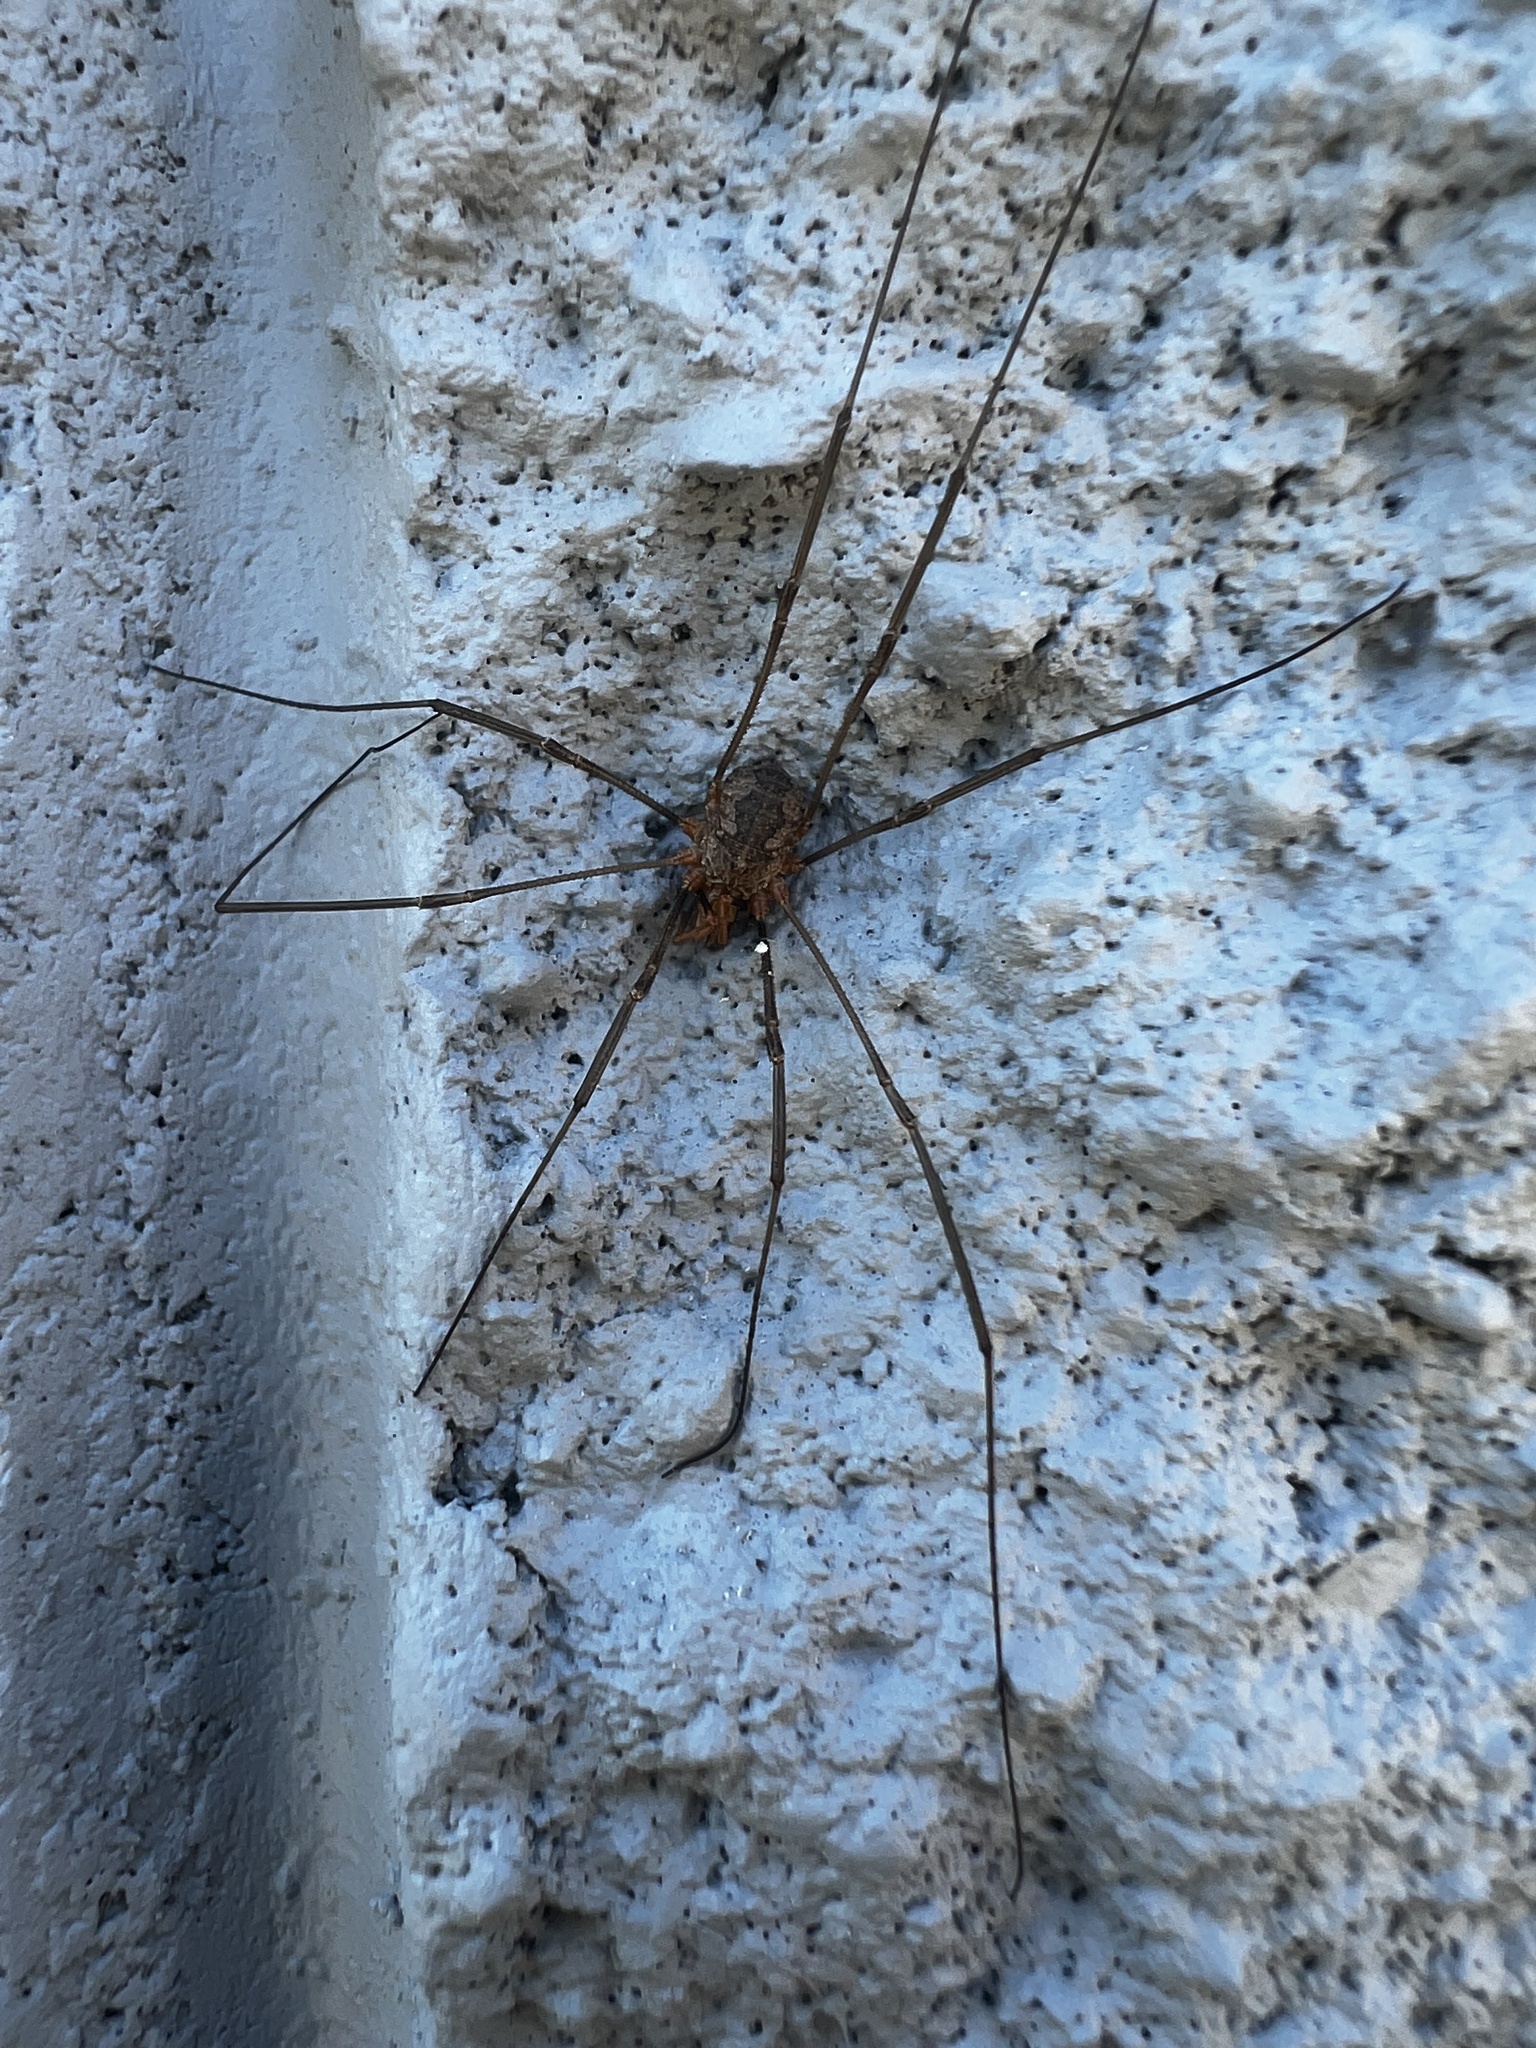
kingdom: Animalia
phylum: Arthropoda
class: Arachnida
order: Opiliones
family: Phalangiidae
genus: Phalangium
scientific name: Phalangium opilio
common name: Daddy longleg
